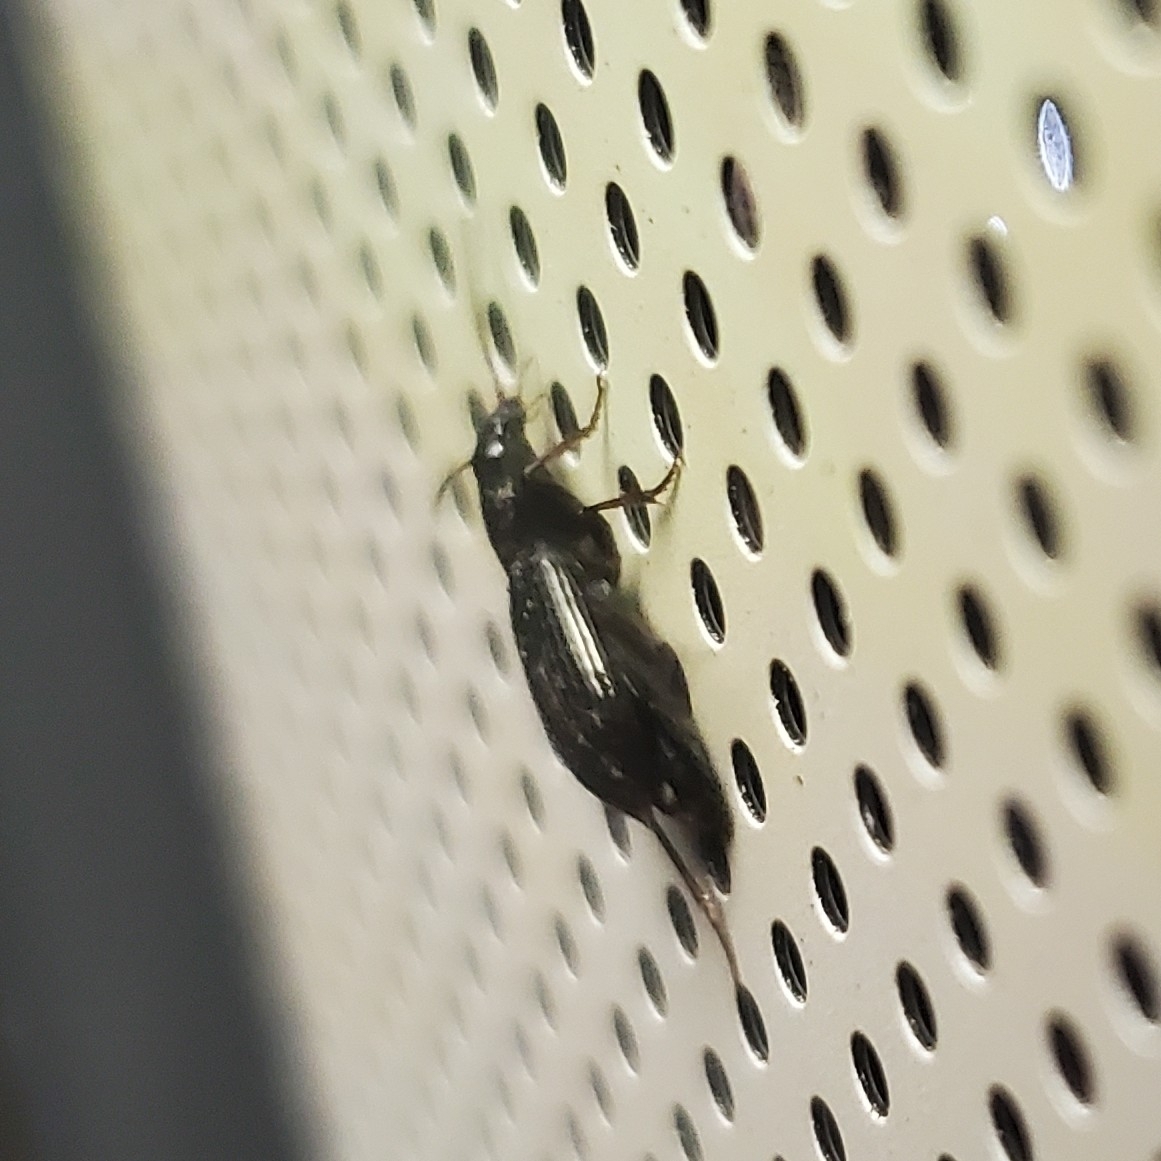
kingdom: Animalia
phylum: Arthropoda
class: Insecta
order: Coleoptera
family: Carabidae
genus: Agonum
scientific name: Agonum punctiforme
